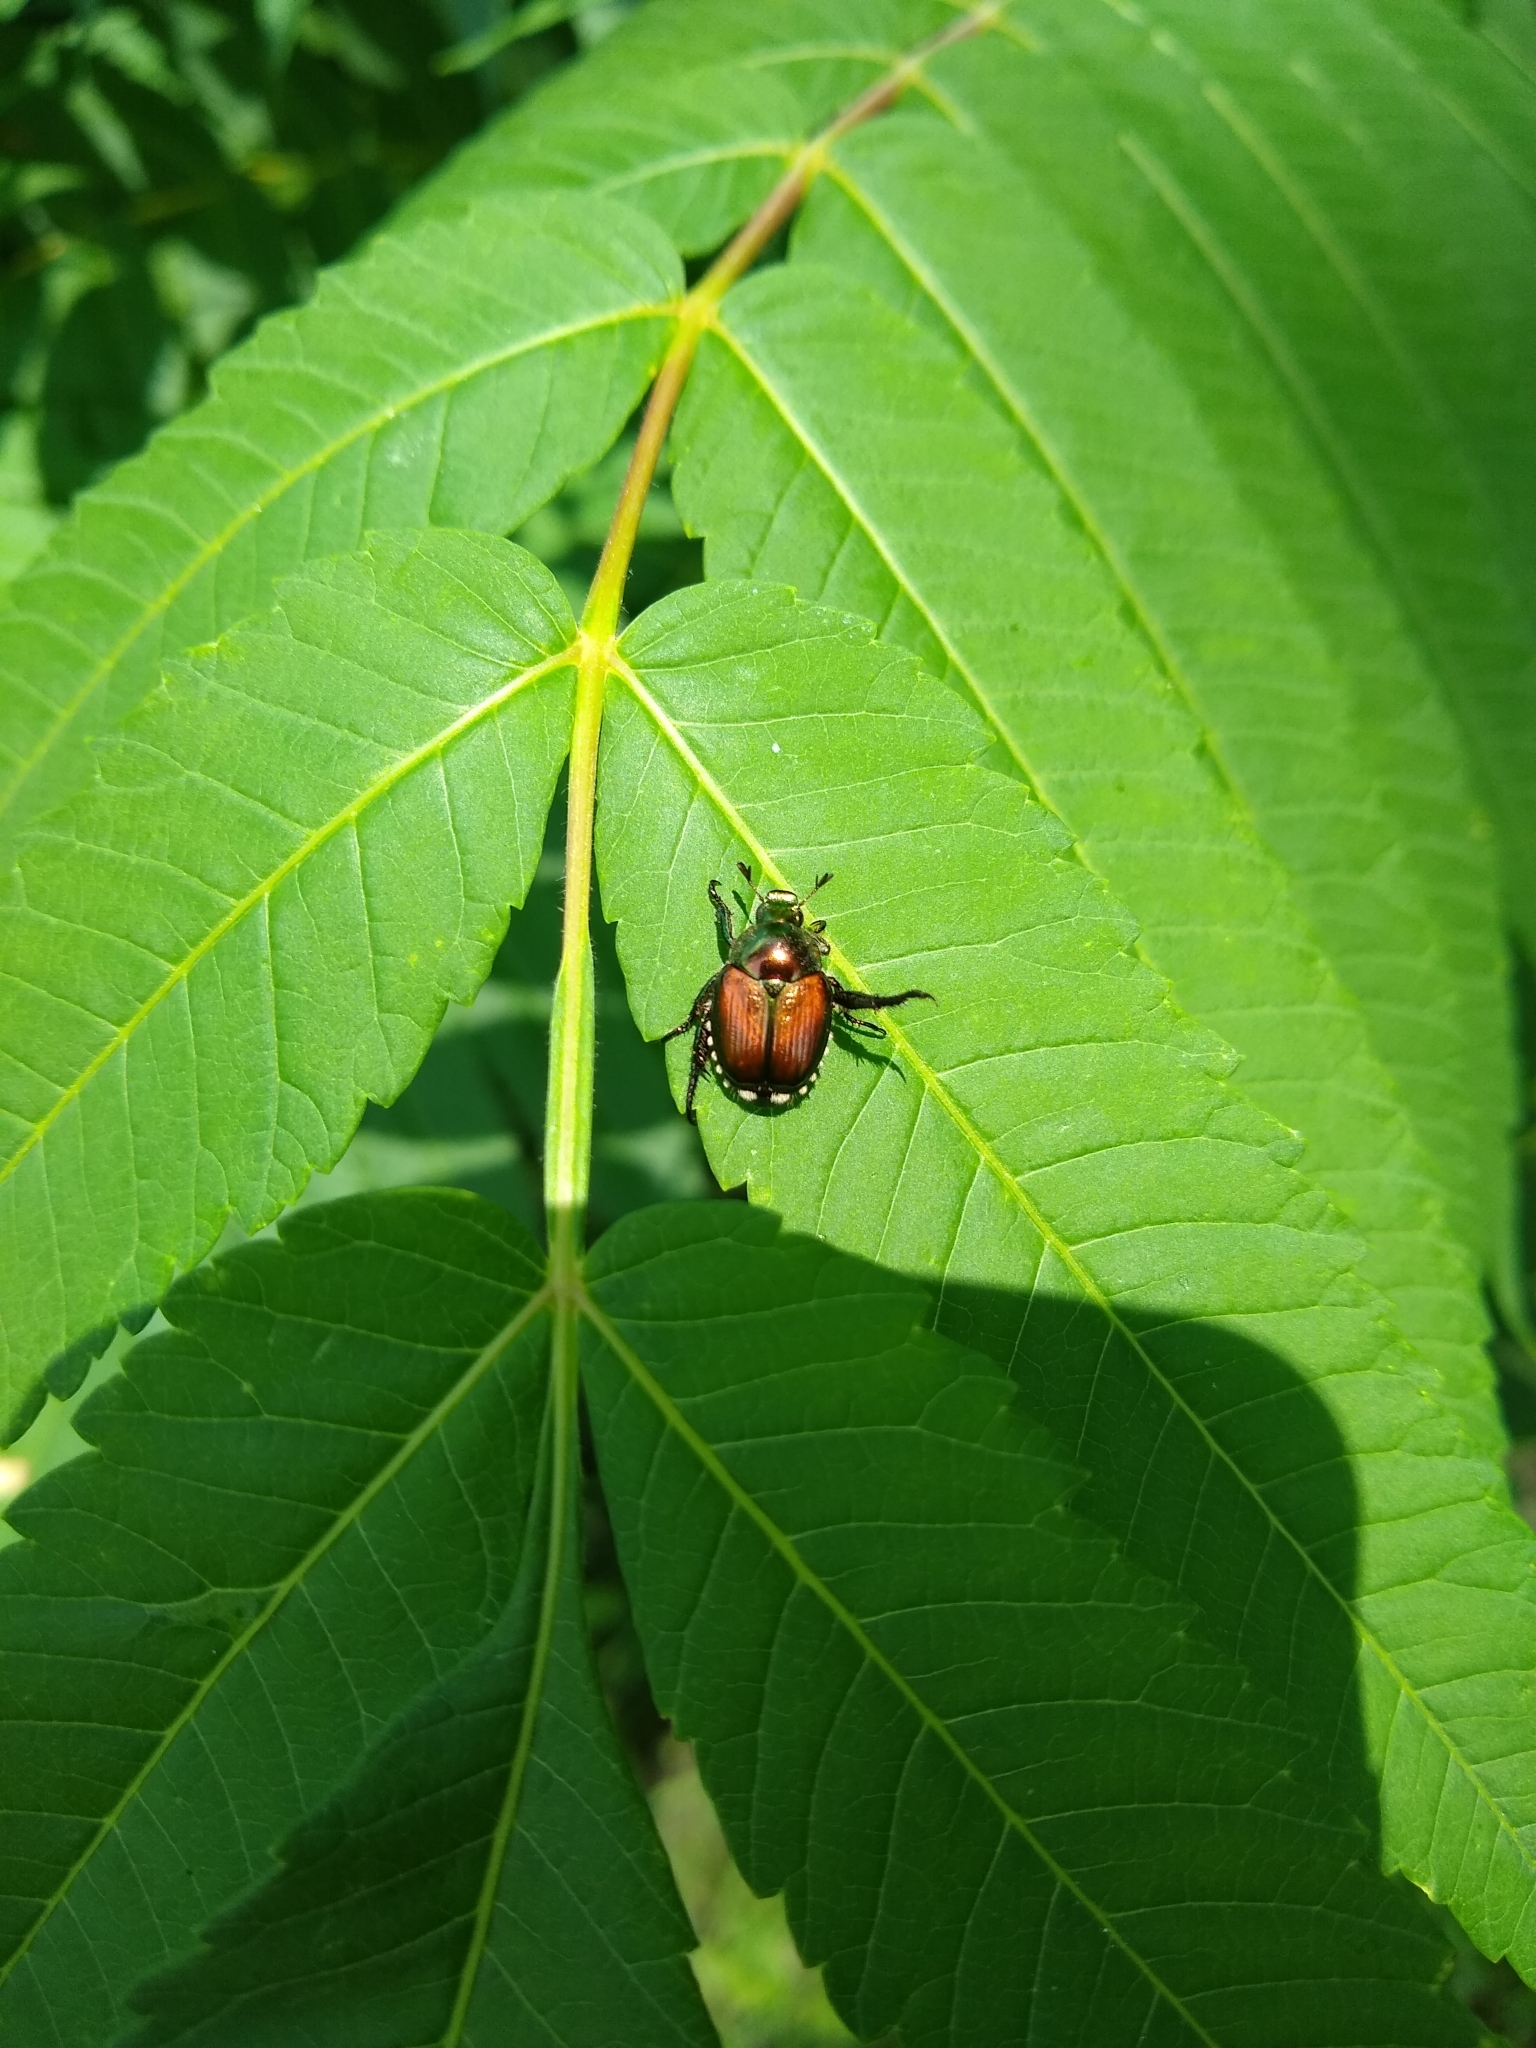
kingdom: Animalia
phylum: Arthropoda
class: Insecta
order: Coleoptera
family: Scarabaeidae
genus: Popillia
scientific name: Popillia japonica
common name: Japanese beetle
